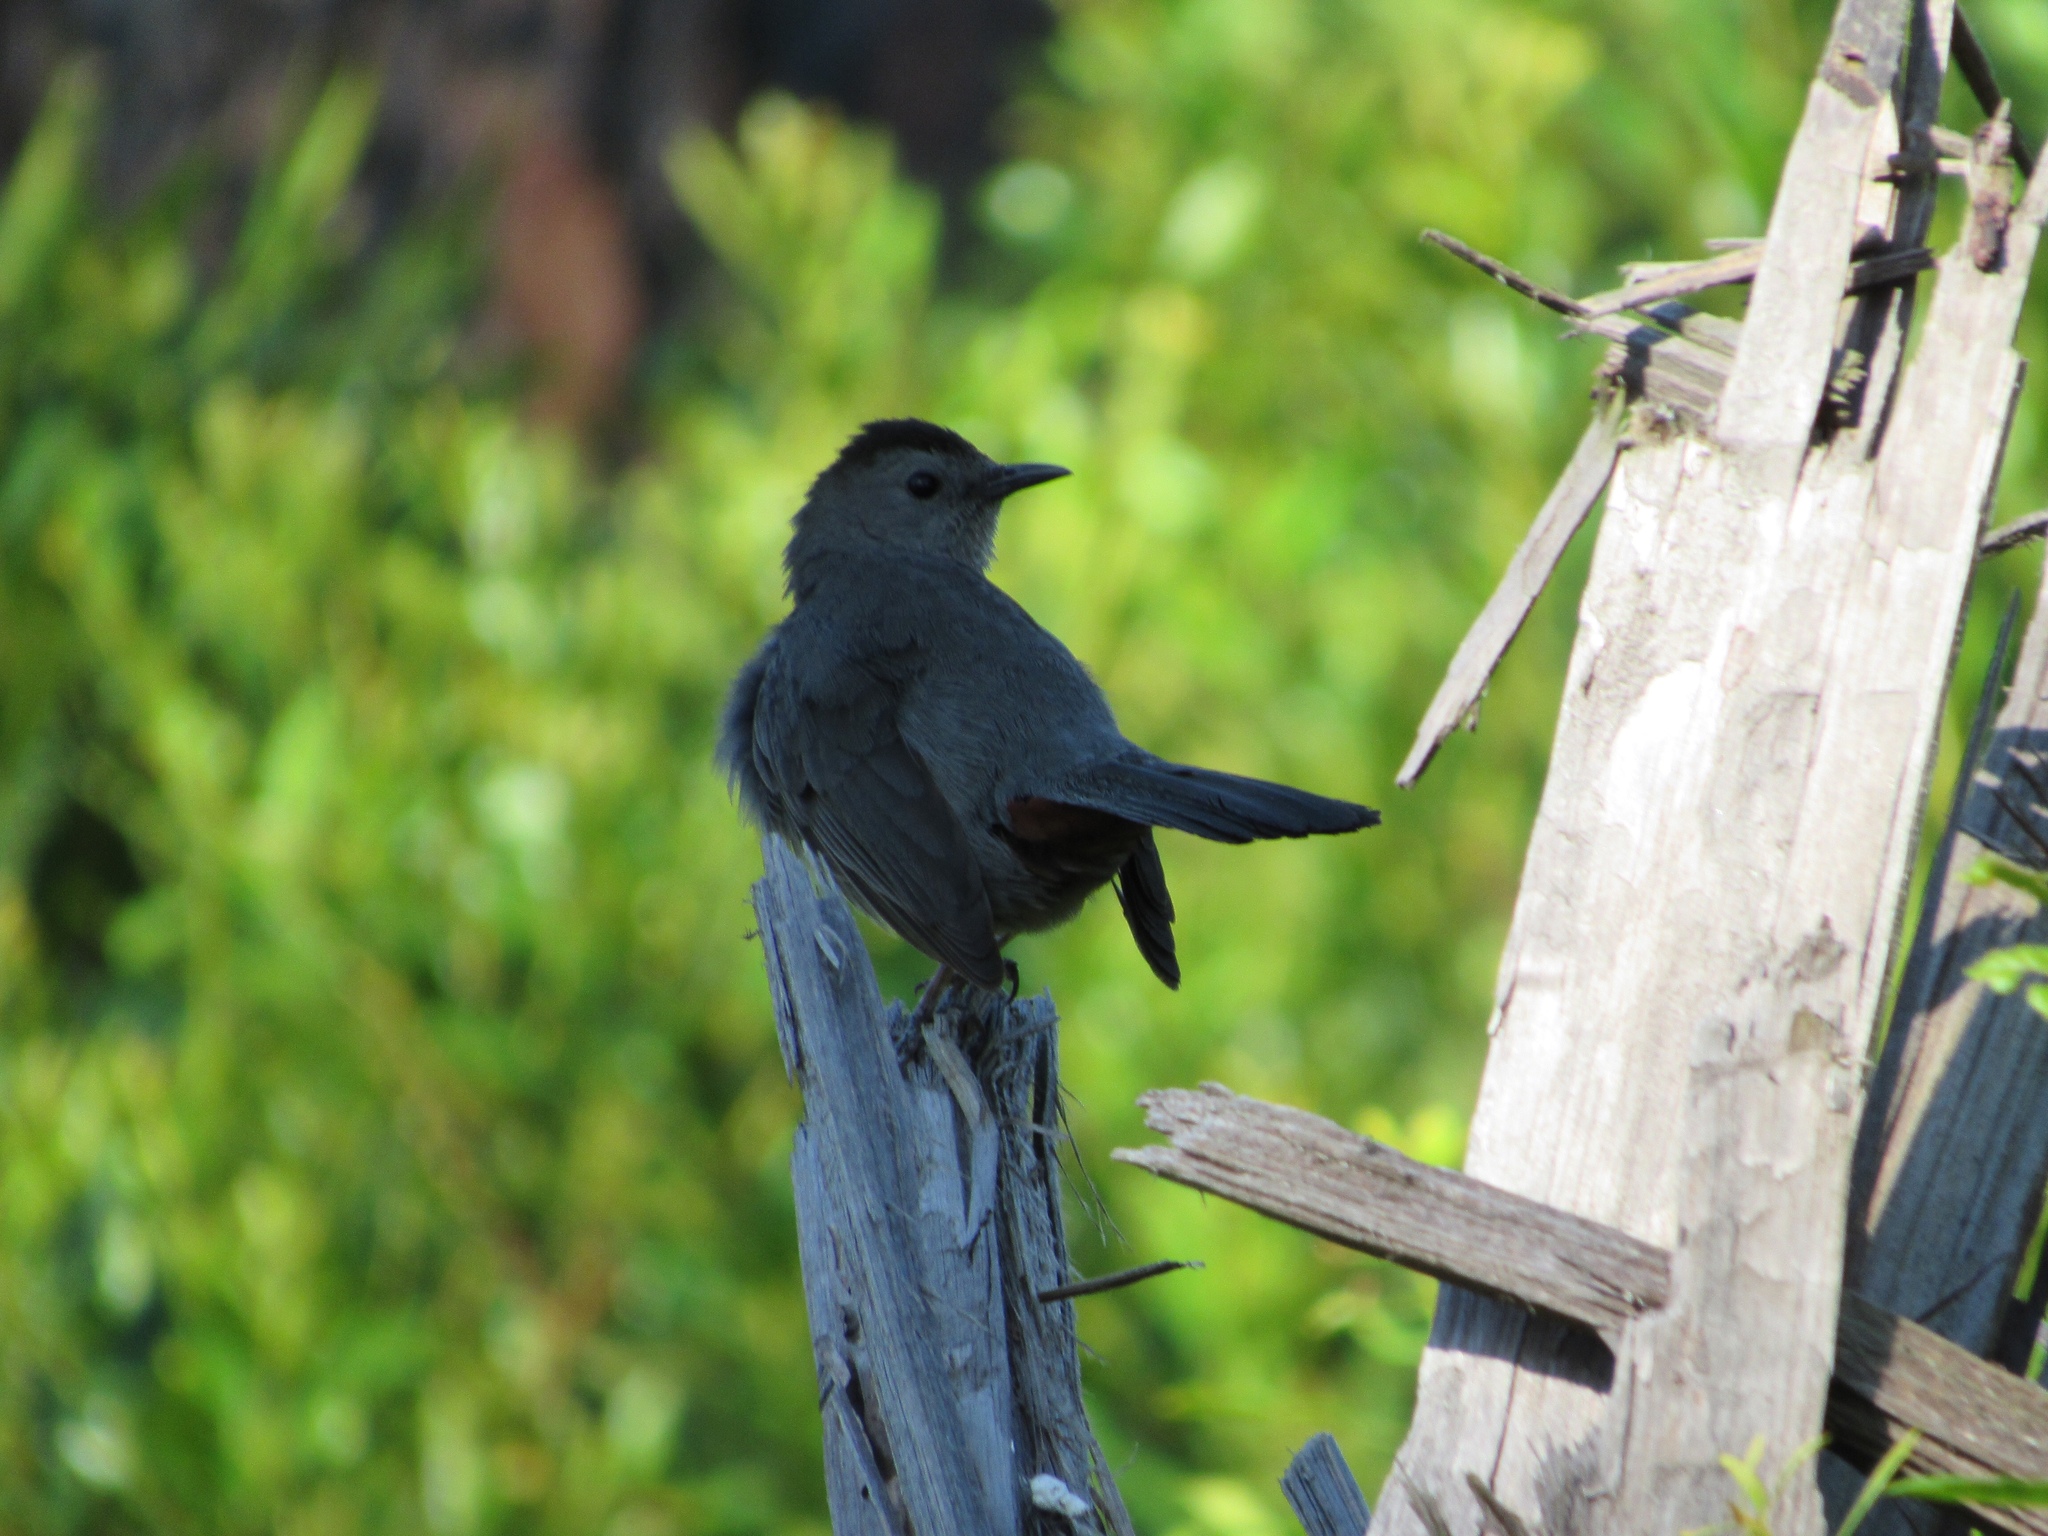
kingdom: Animalia
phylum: Chordata
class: Aves
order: Passeriformes
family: Mimidae
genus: Dumetella
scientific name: Dumetella carolinensis
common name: Gray catbird
